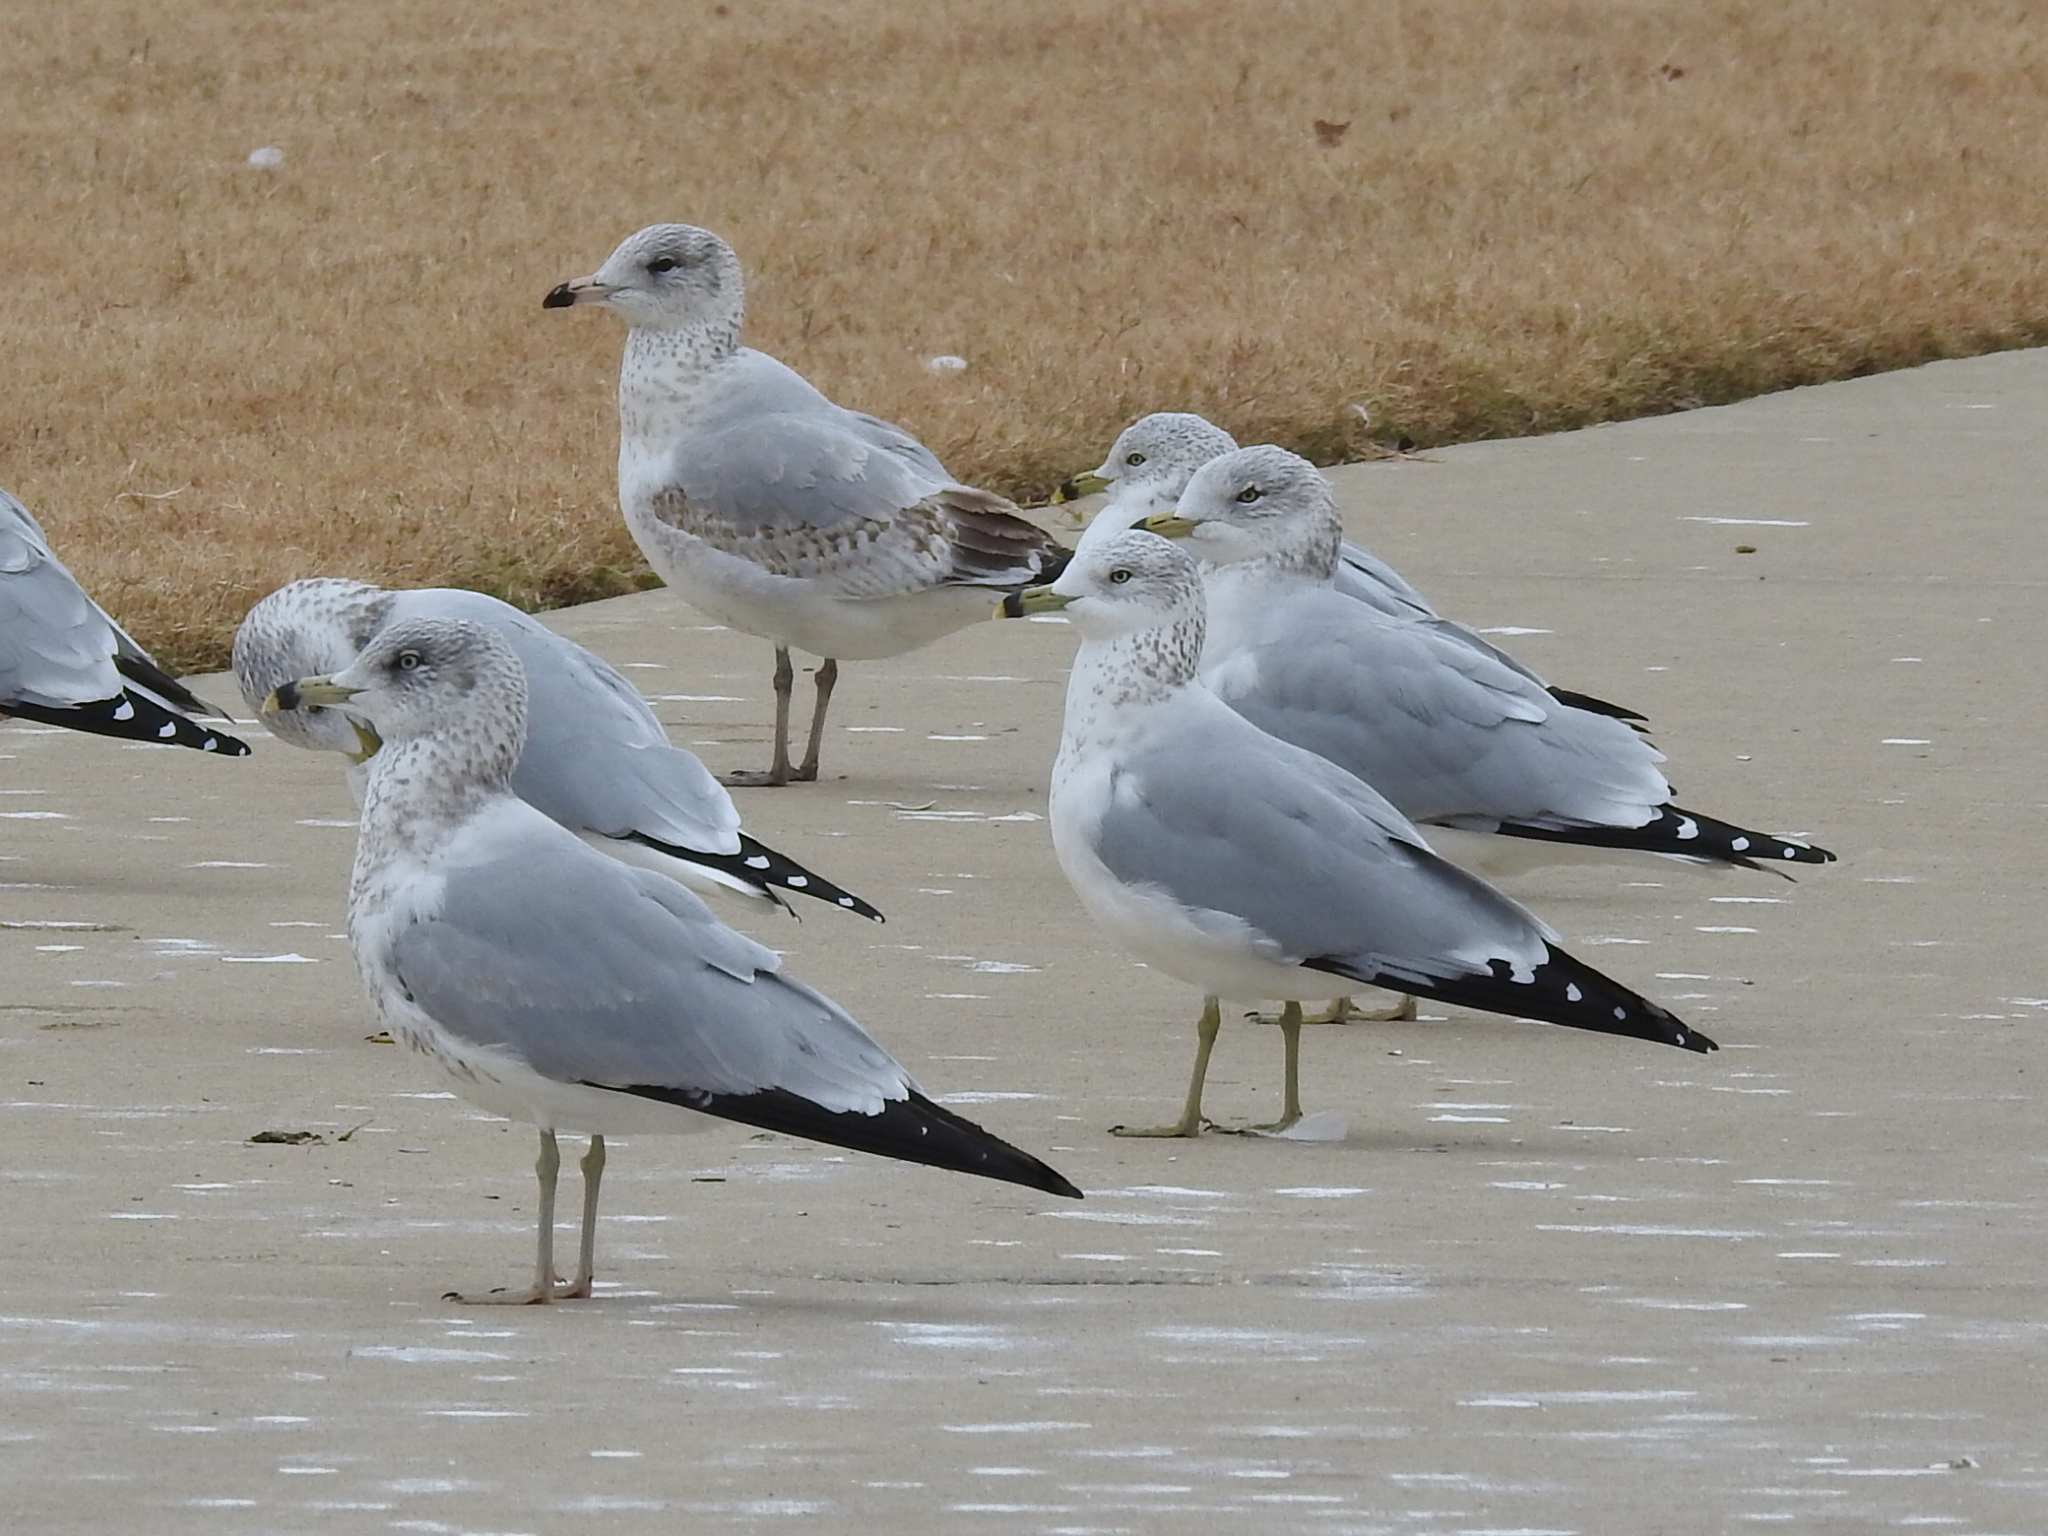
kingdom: Animalia
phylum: Chordata
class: Aves
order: Charadriiformes
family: Laridae
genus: Larus
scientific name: Larus delawarensis
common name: Ring-billed gull
